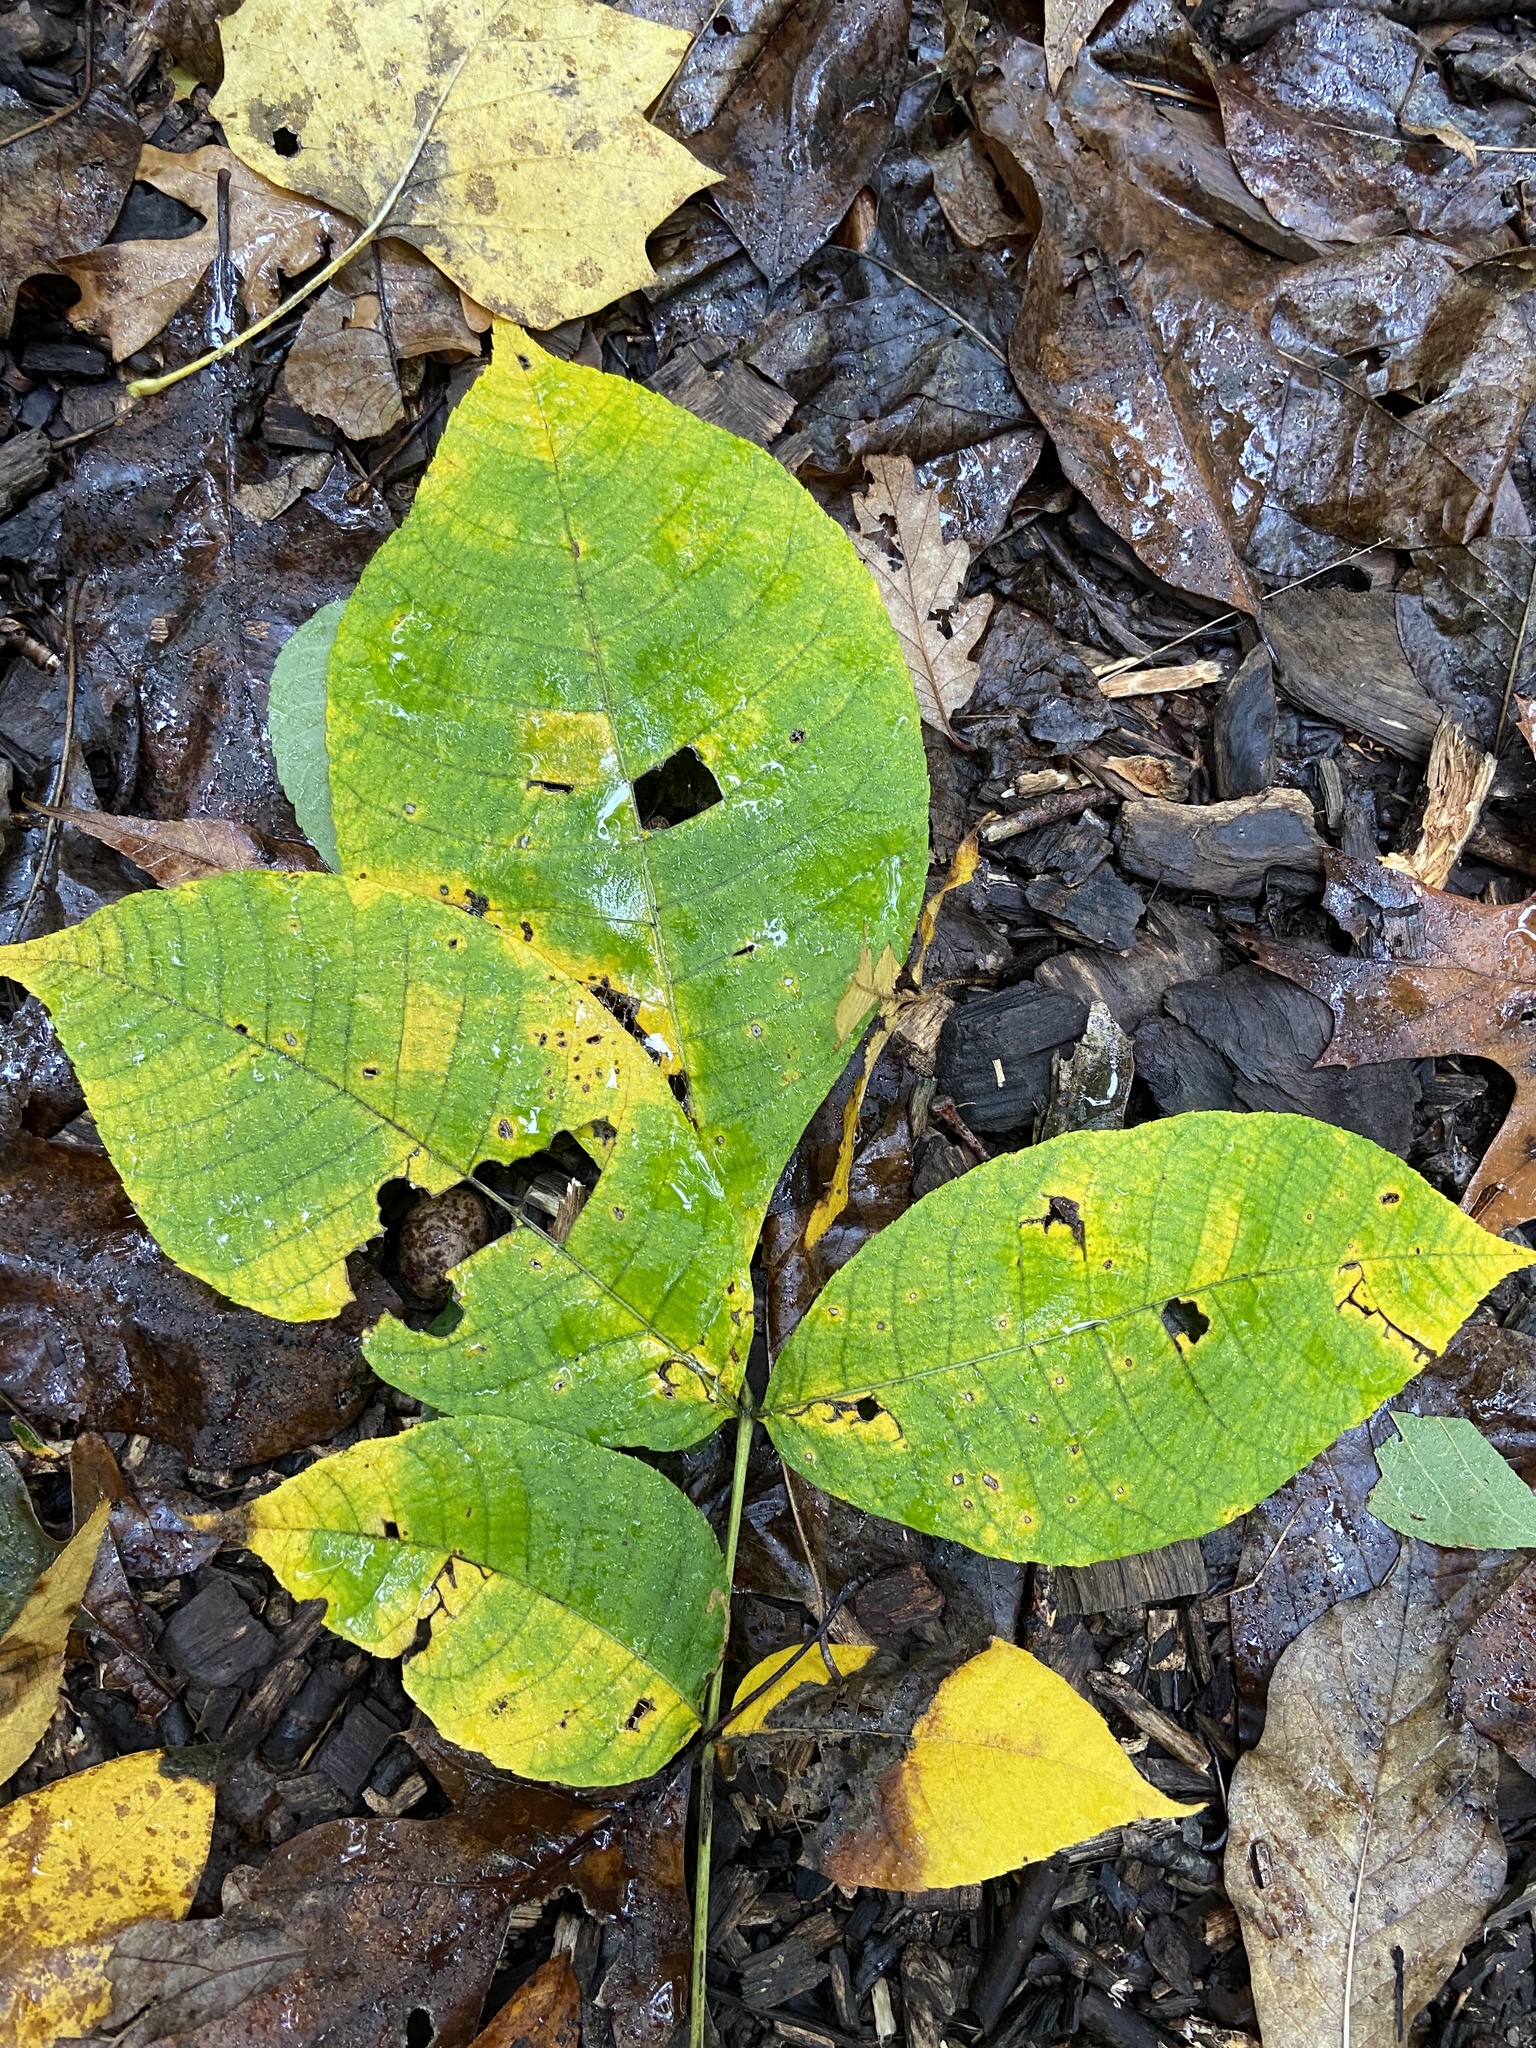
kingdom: Plantae
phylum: Tracheophyta
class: Magnoliopsida
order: Fagales
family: Juglandaceae
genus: Carya
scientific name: Carya alba
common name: Mockernut hickory
